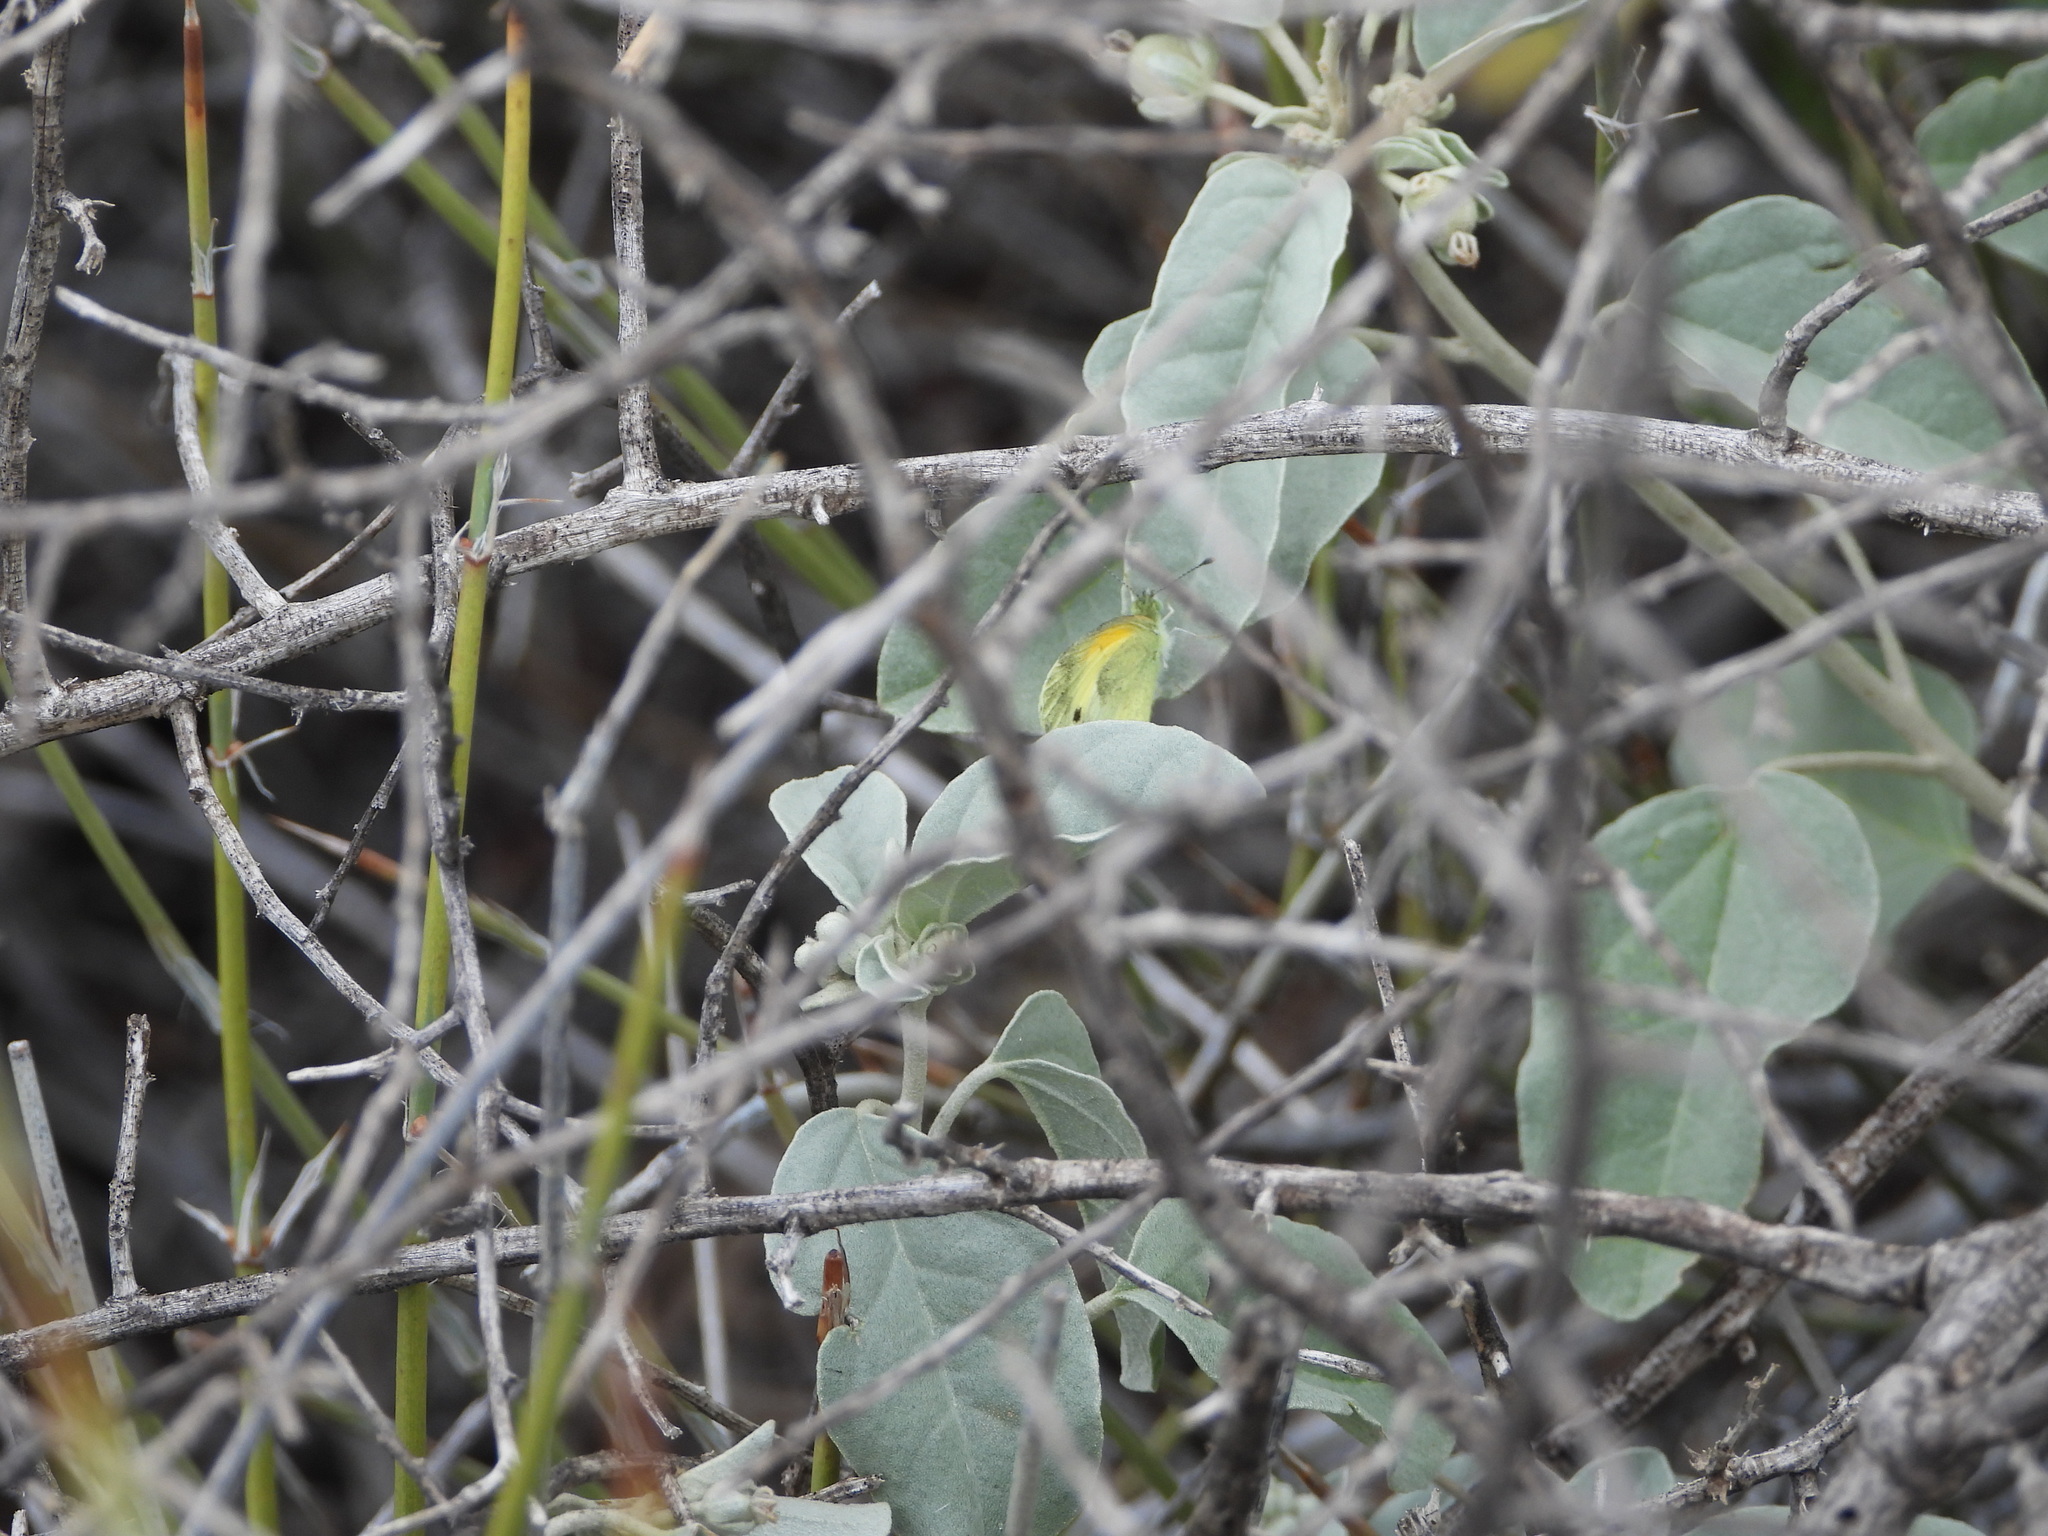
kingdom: Animalia
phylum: Arthropoda
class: Insecta
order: Lepidoptera
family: Pieridae
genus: Nathalis
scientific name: Nathalis iole
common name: Dainty sulphur
